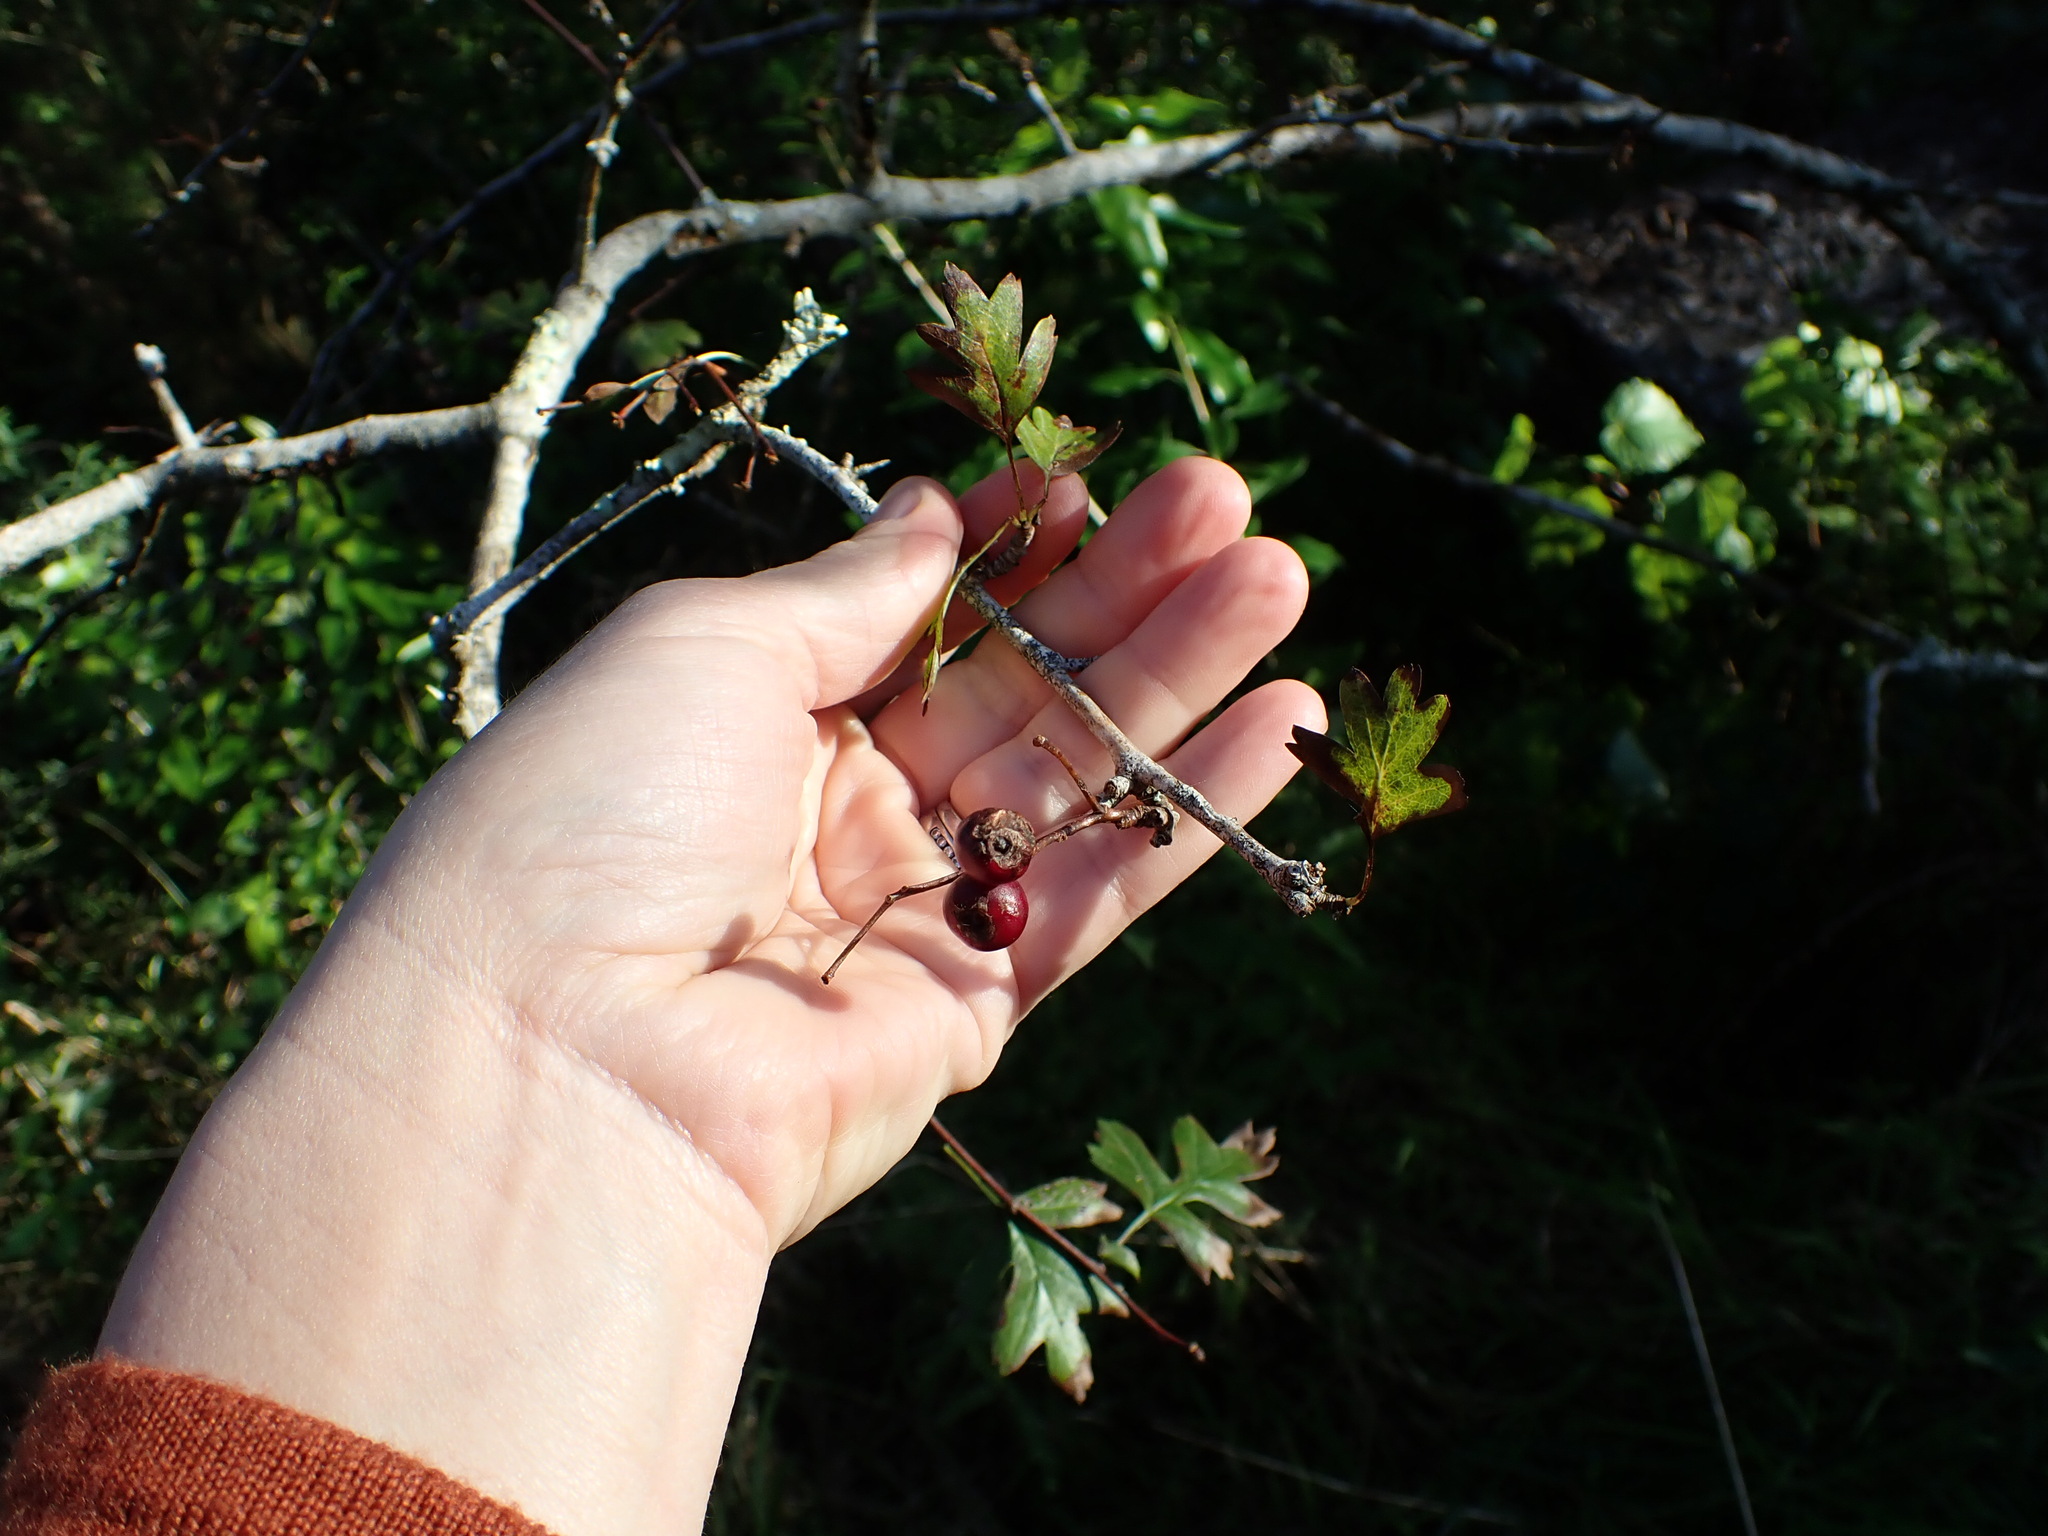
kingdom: Plantae
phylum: Tracheophyta
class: Magnoliopsida
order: Rosales
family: Rosaceae
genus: Crataegus
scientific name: Crataegus monogyna
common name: Hawthorn
